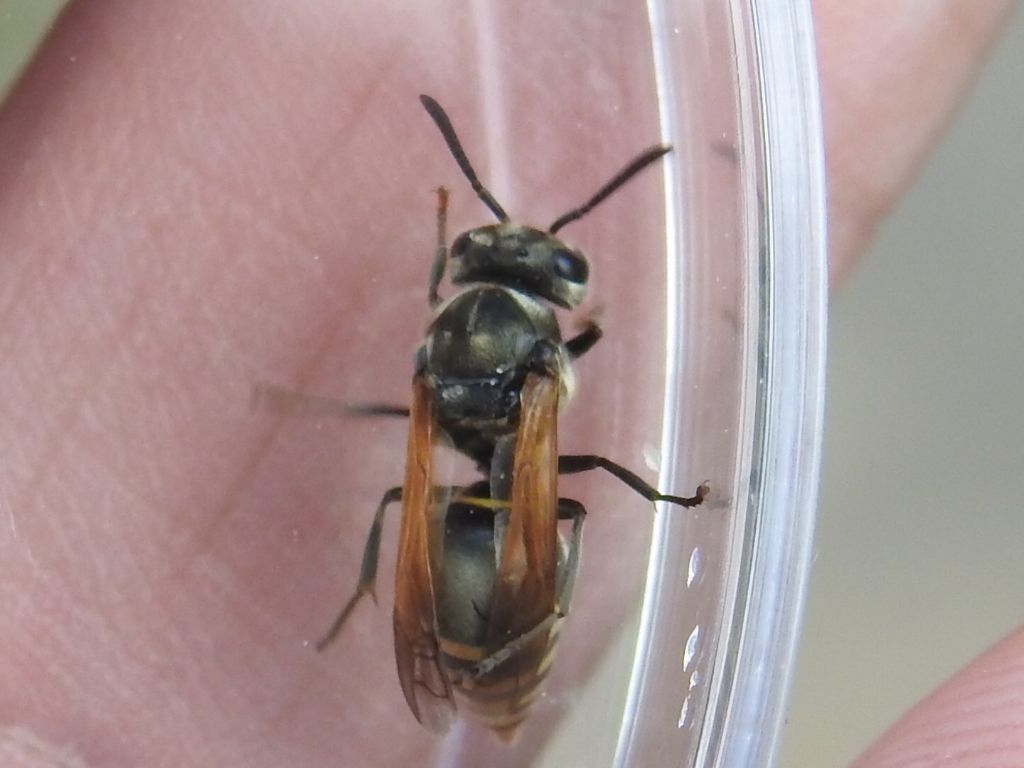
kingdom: Animalia
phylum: Arthropoda
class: Insecta
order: Hymenoptera
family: Vespidae
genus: Brachygastra
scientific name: Brachygastra mellifica
